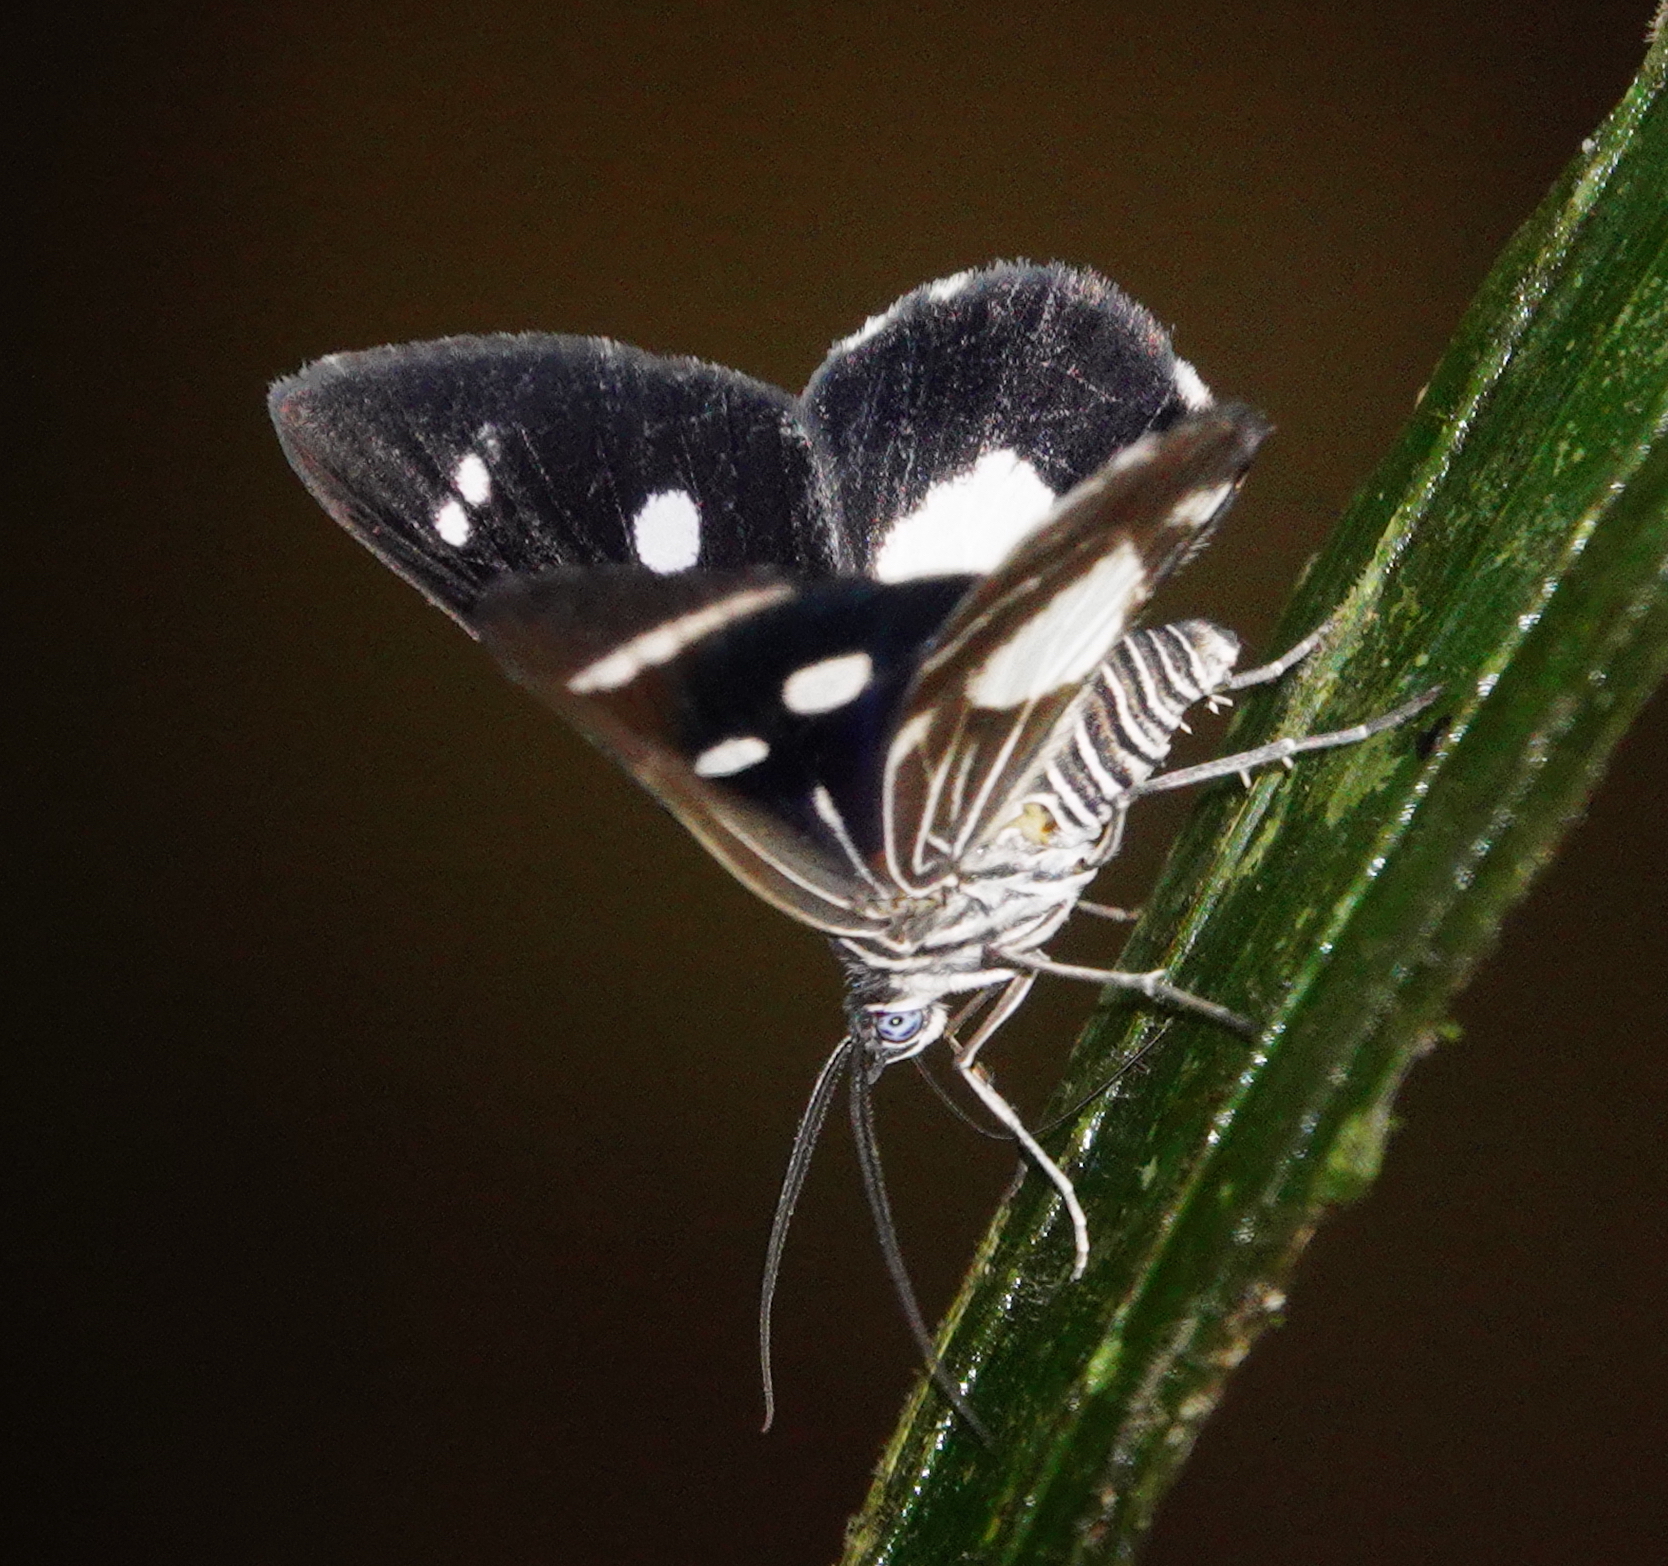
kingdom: Animalia
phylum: Arthropoda
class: Insecta
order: Lepidoptera
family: Geometridae
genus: Spiloctenia
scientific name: Spiloctenia whitelyi
